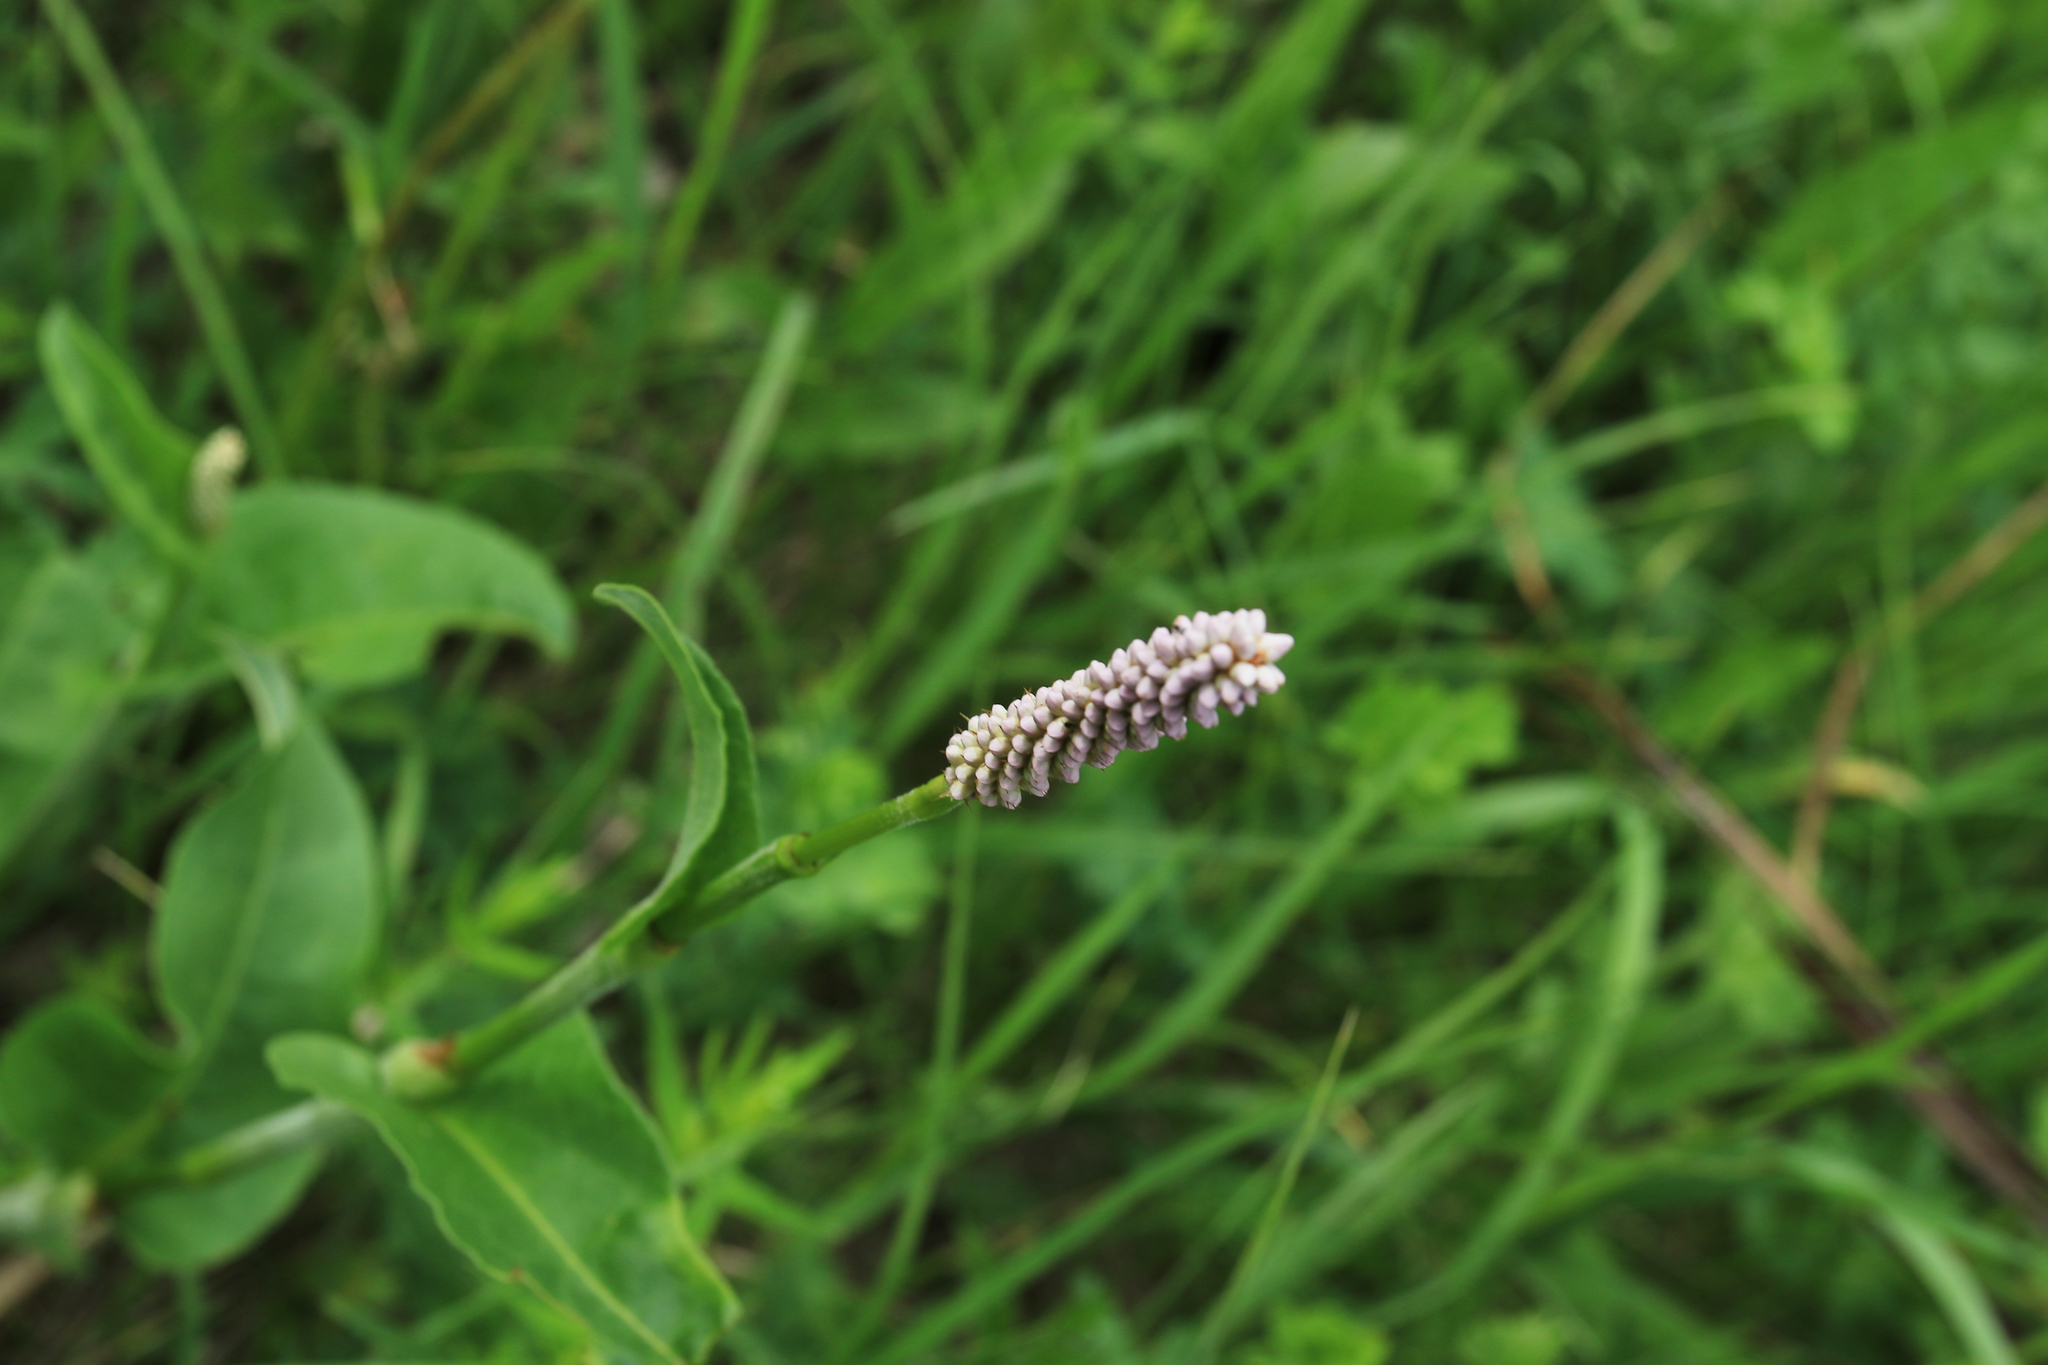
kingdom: Plantae
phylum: Tracheophyta
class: Magnoliopsida
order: Caryophyllales
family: Polygonaceae
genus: Bistorta
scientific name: Bistorta officinalis
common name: Common bistort
